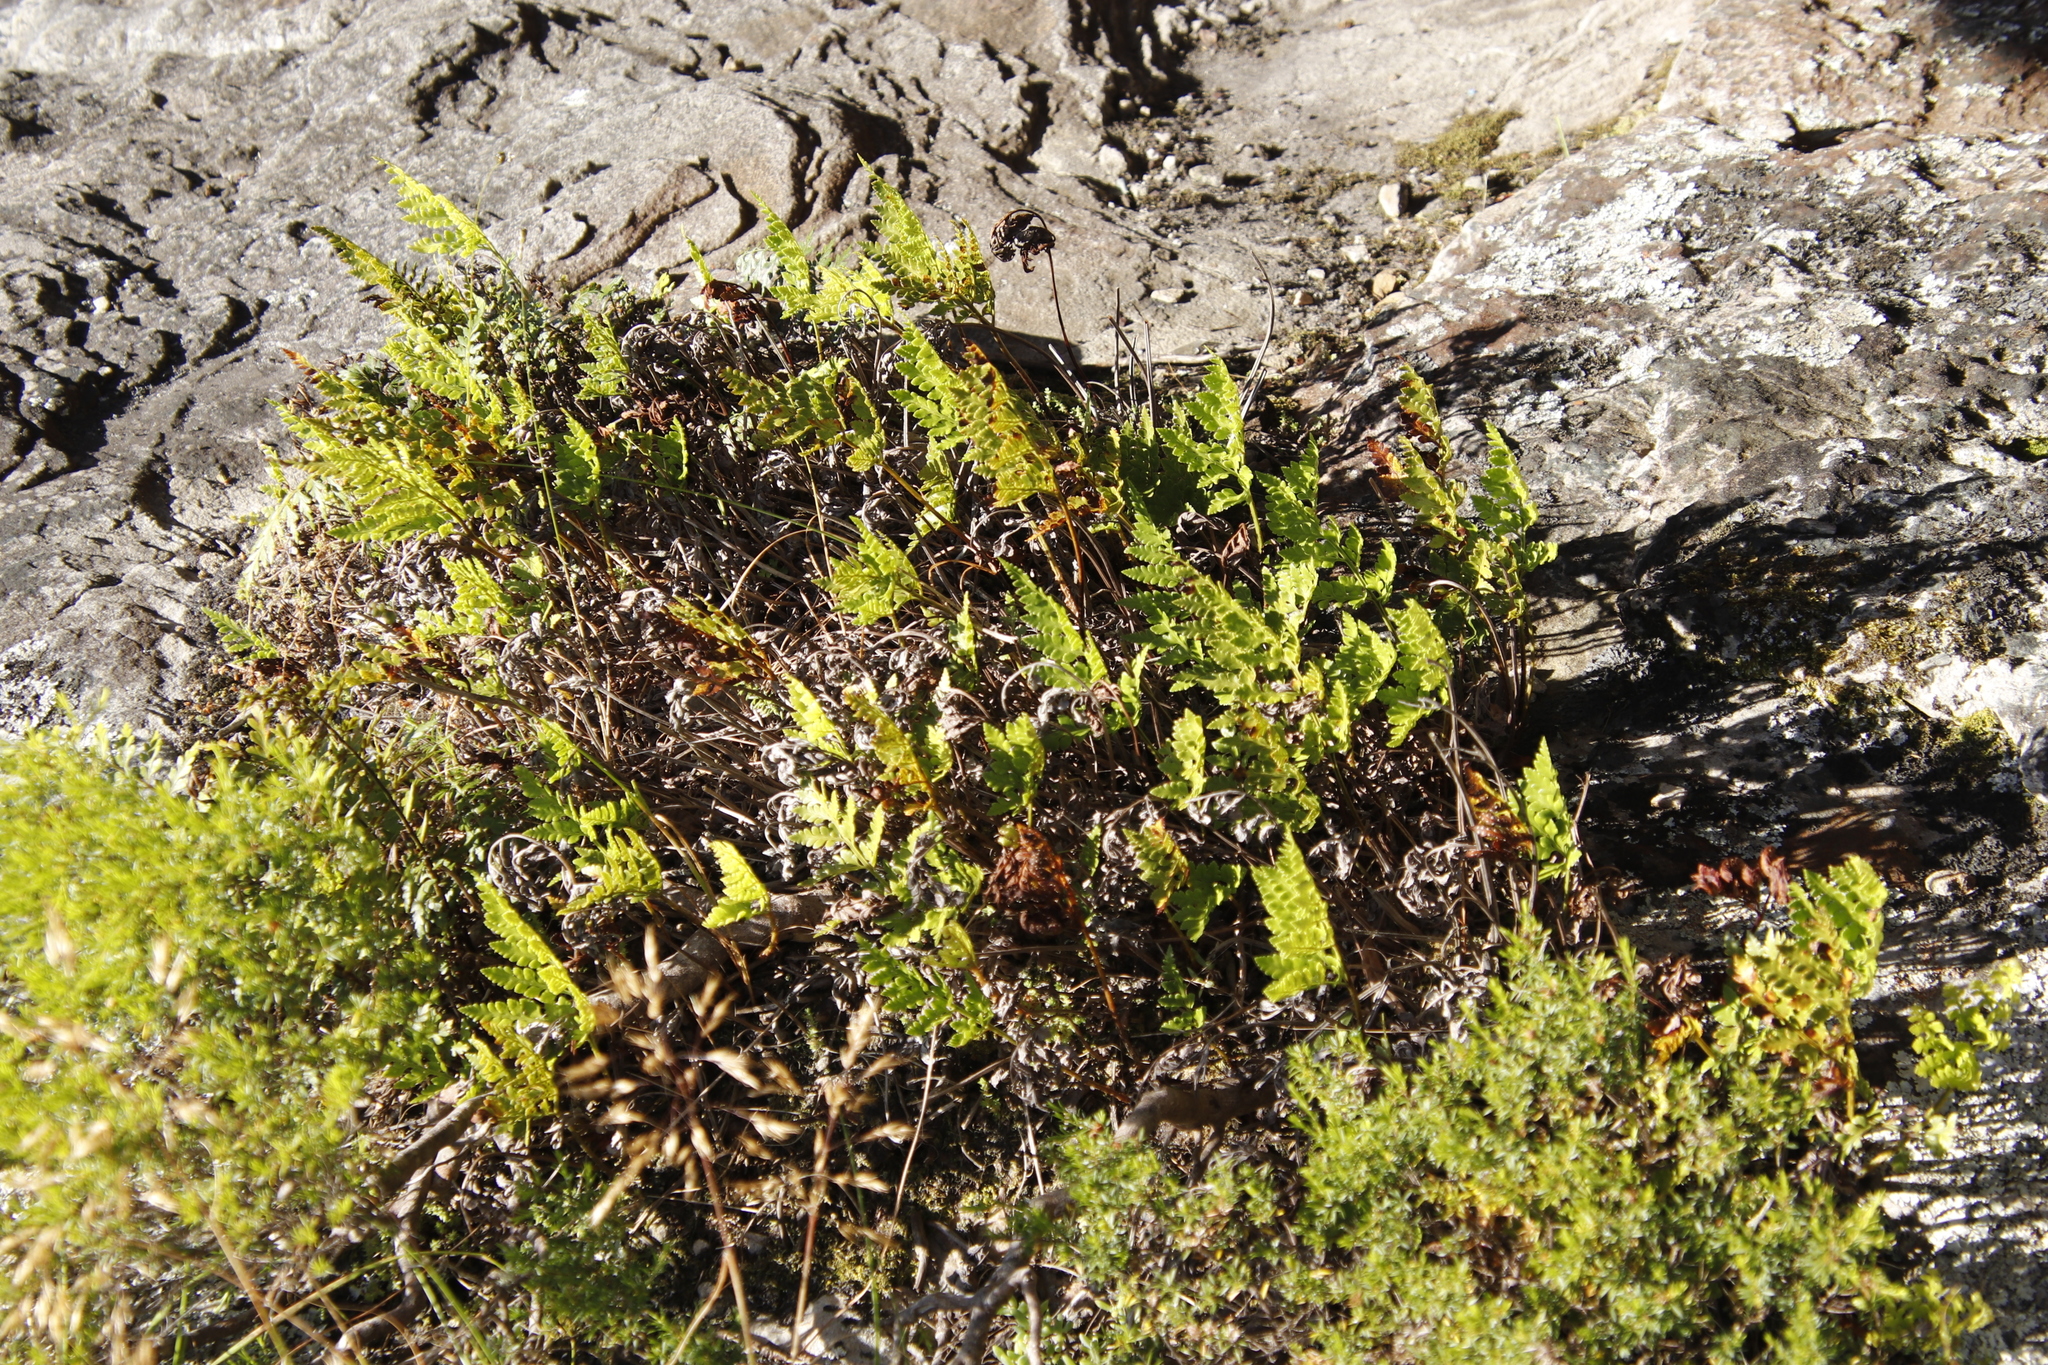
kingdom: Plantae
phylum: Tracheophyta
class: Polypodiopsida
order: Polypodiales
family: Dryopteridaceae
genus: Rumohra
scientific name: Rumohra adiantiformis
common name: Leather fern
